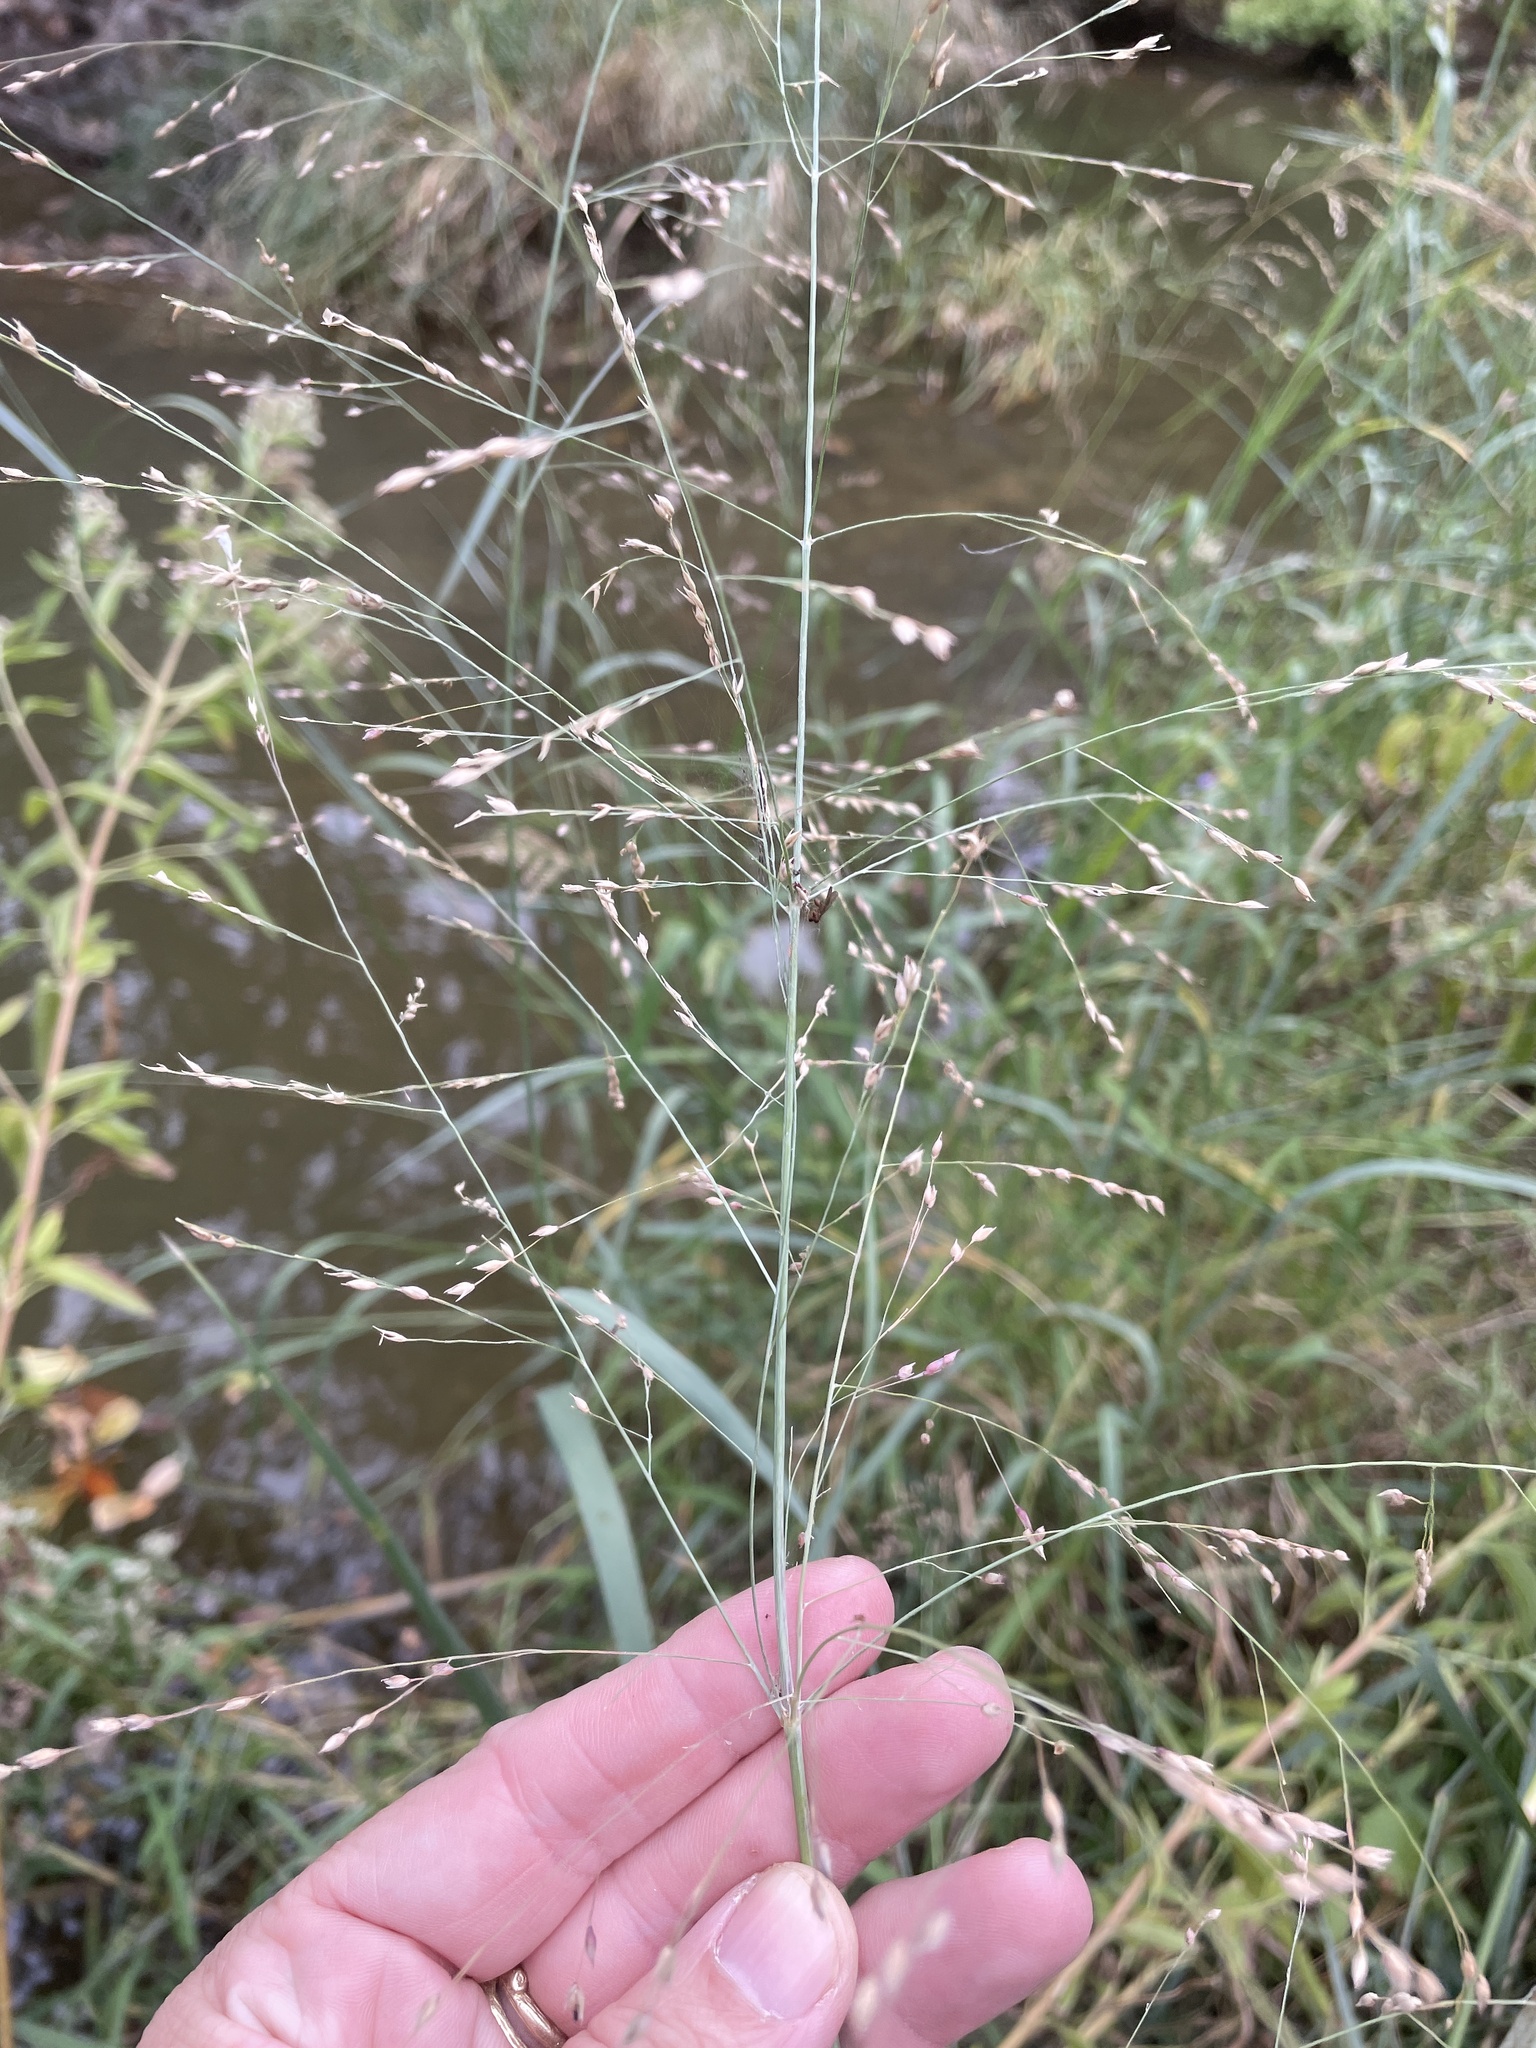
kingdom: Plantae
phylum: Tracheophyta
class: Liliopsida
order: Poales
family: Poaceae
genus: Panicum
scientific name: Panicum virgatum
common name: Switchgrass
